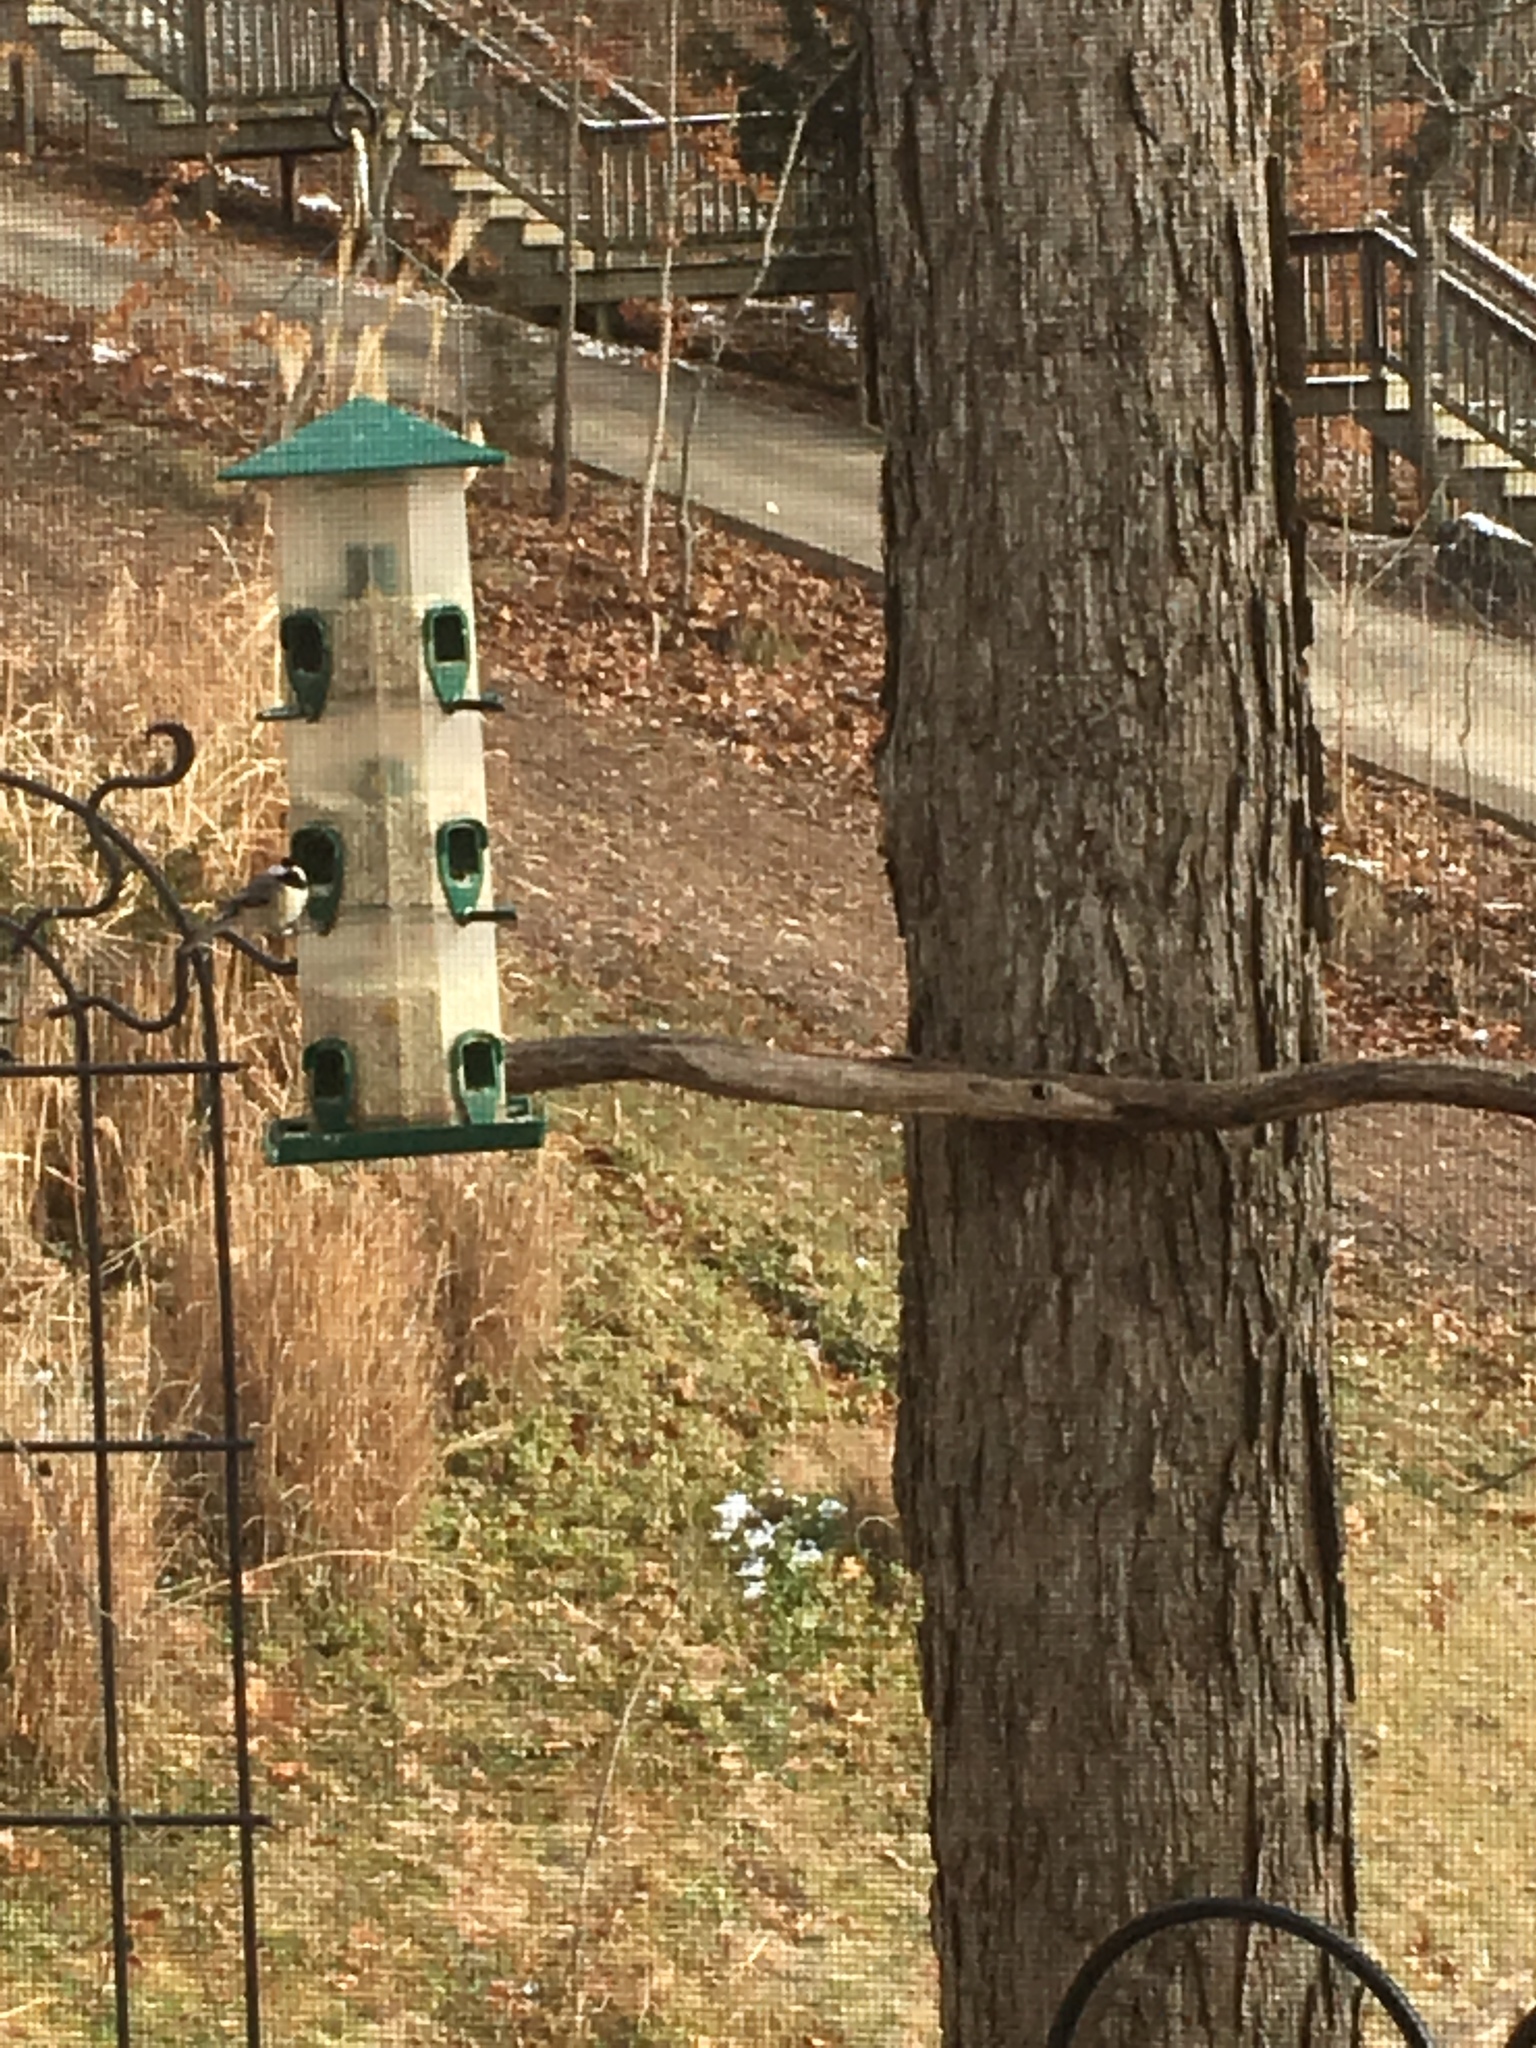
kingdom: Animalia
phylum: Chordata
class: Aves
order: Passeriformes
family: Paridae
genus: Poecile
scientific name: Poecile carolinensis
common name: Carolina chickadee
